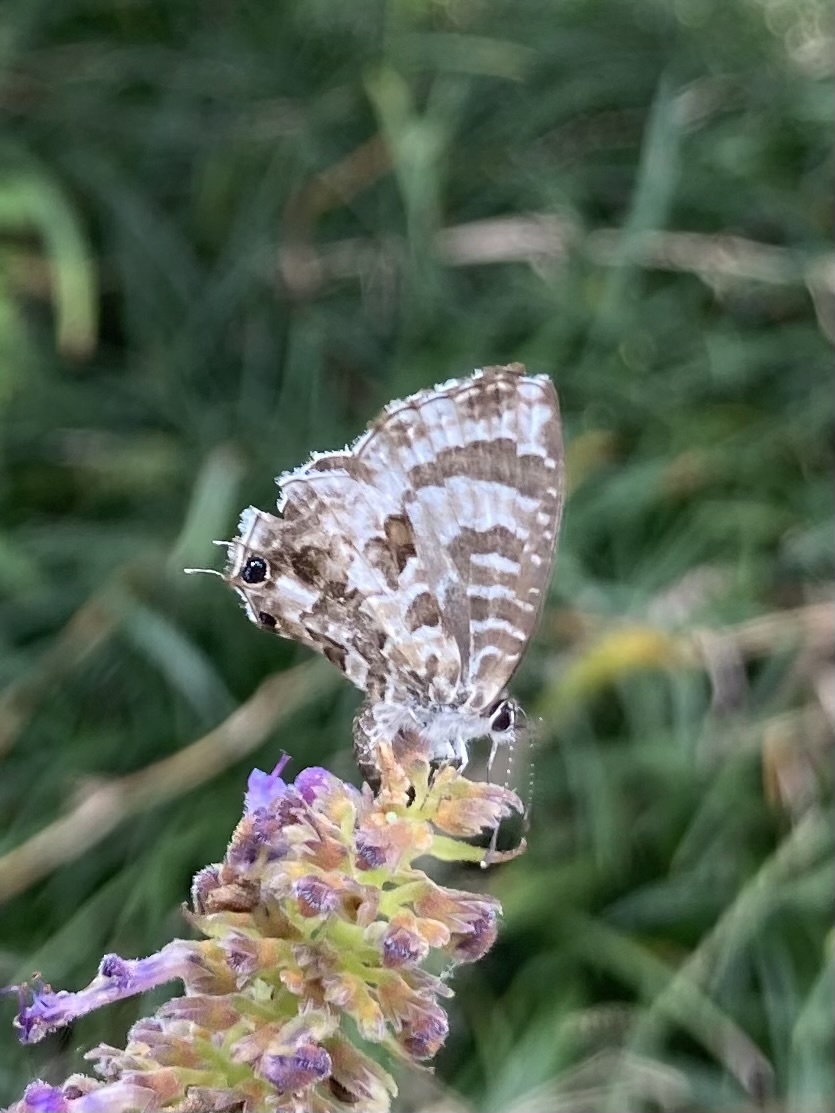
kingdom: Animalia
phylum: Arthropoda
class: Insecta
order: Lepidoptera
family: Lycaenidae
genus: Cacyreus
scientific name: Cacyreus lingeus
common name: Bush bronze
